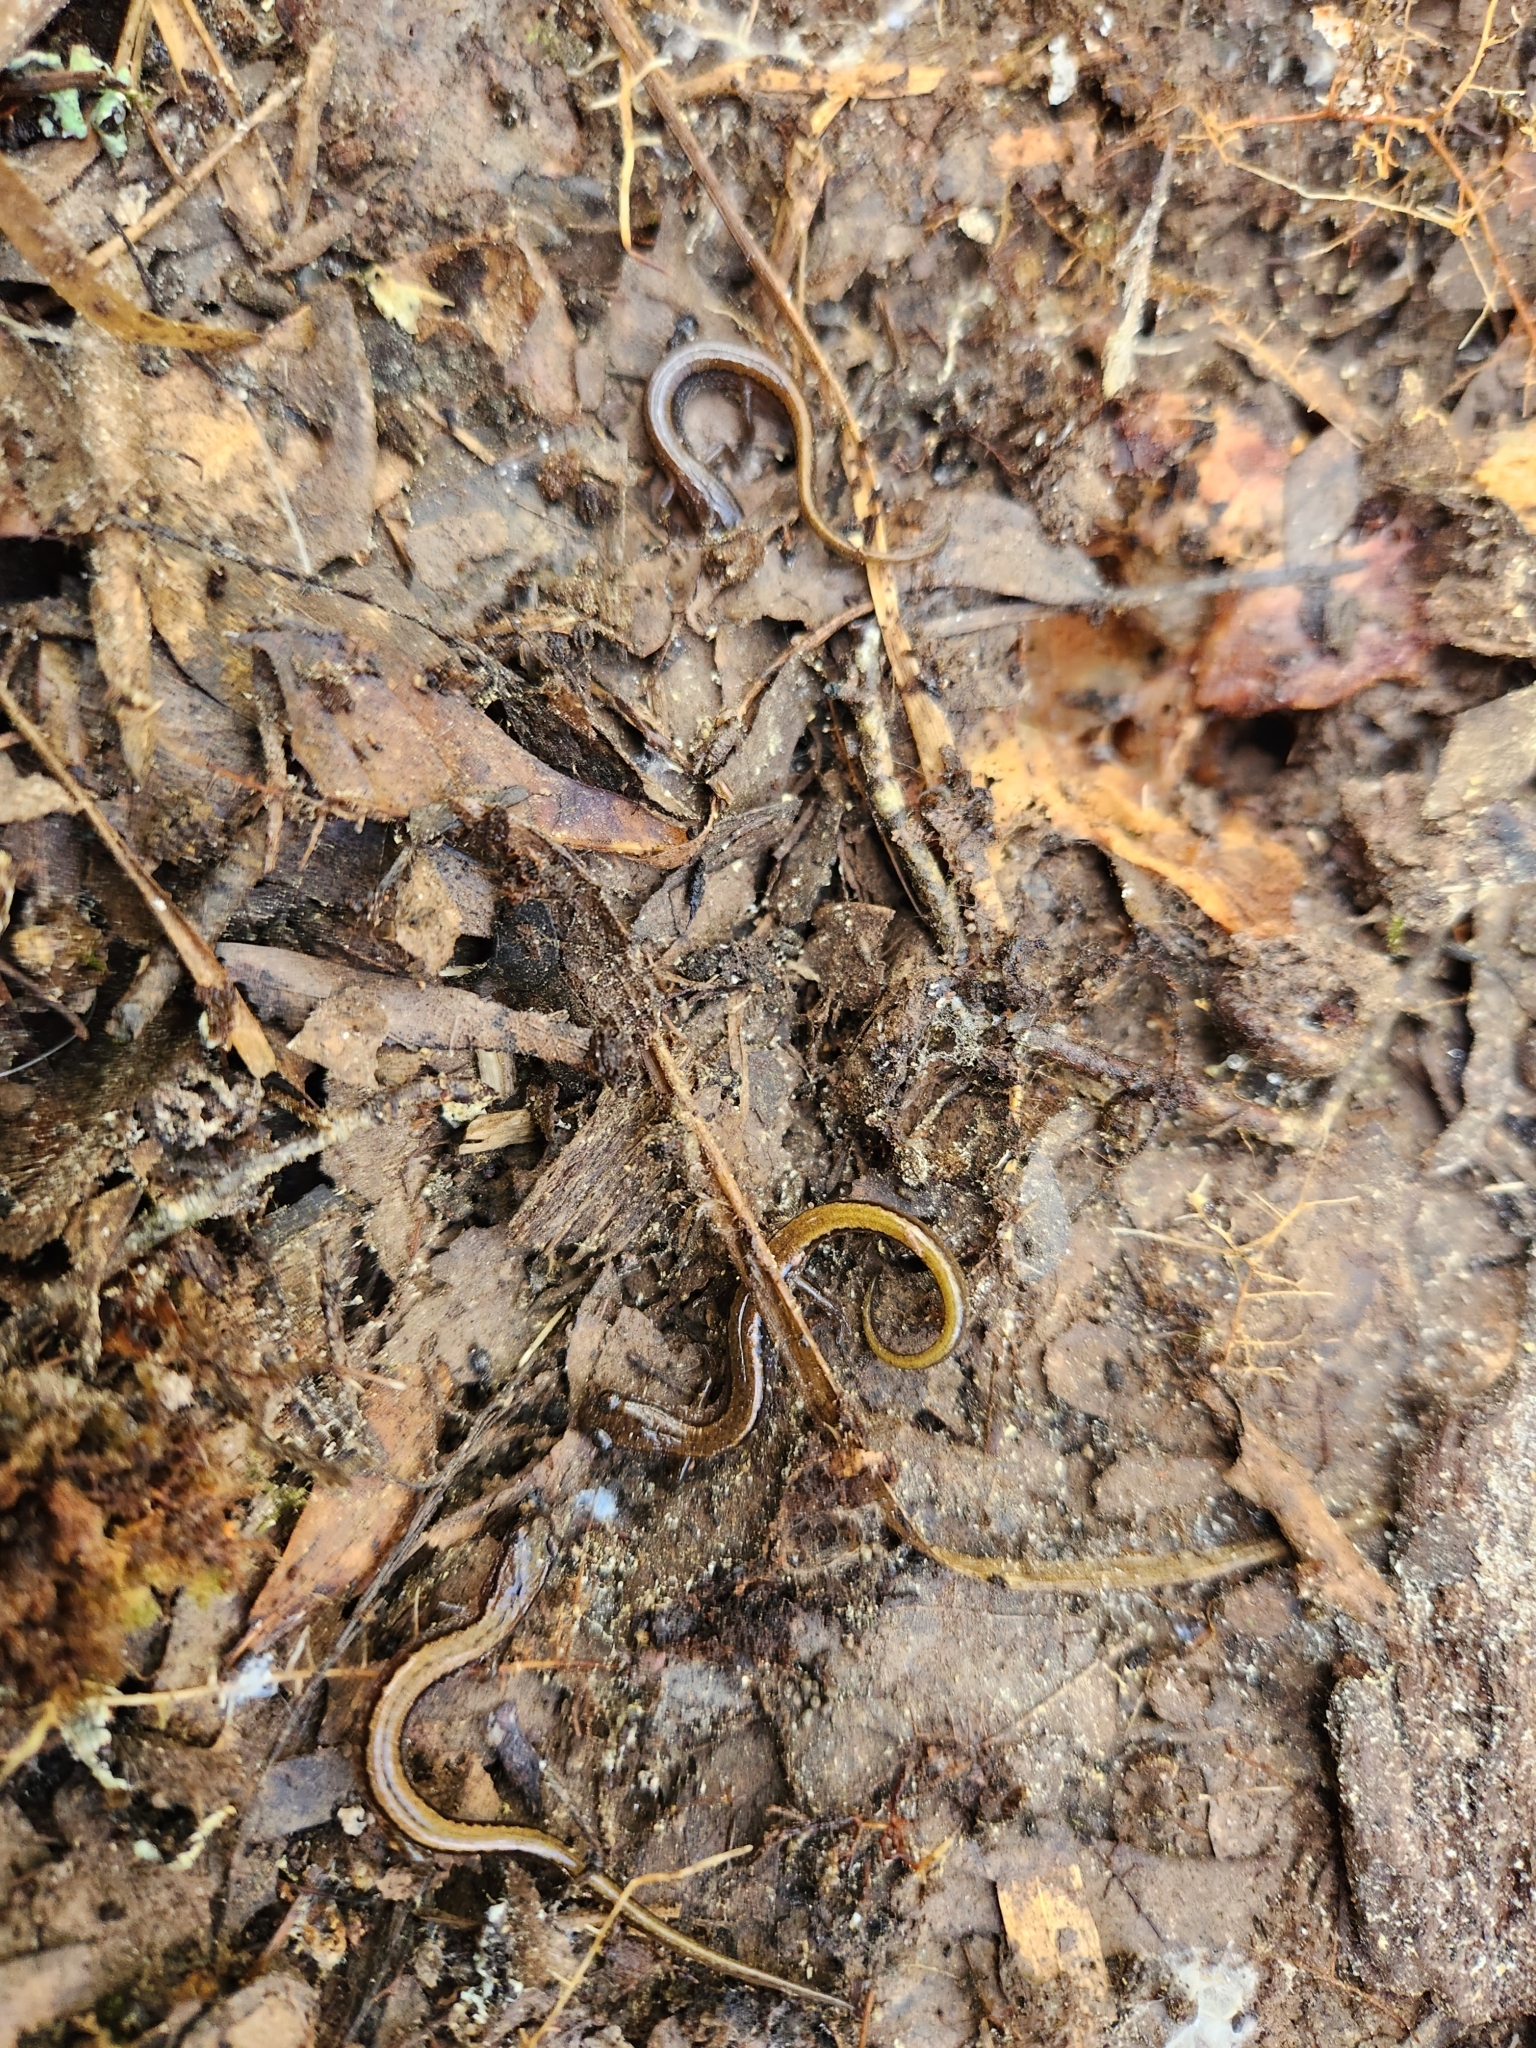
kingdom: Animalia
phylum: Chordata
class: Amphibia
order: Caudata
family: Plethodontidae
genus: Eurycea
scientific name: Eurycea paludicola
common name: Western dwarf salamander
